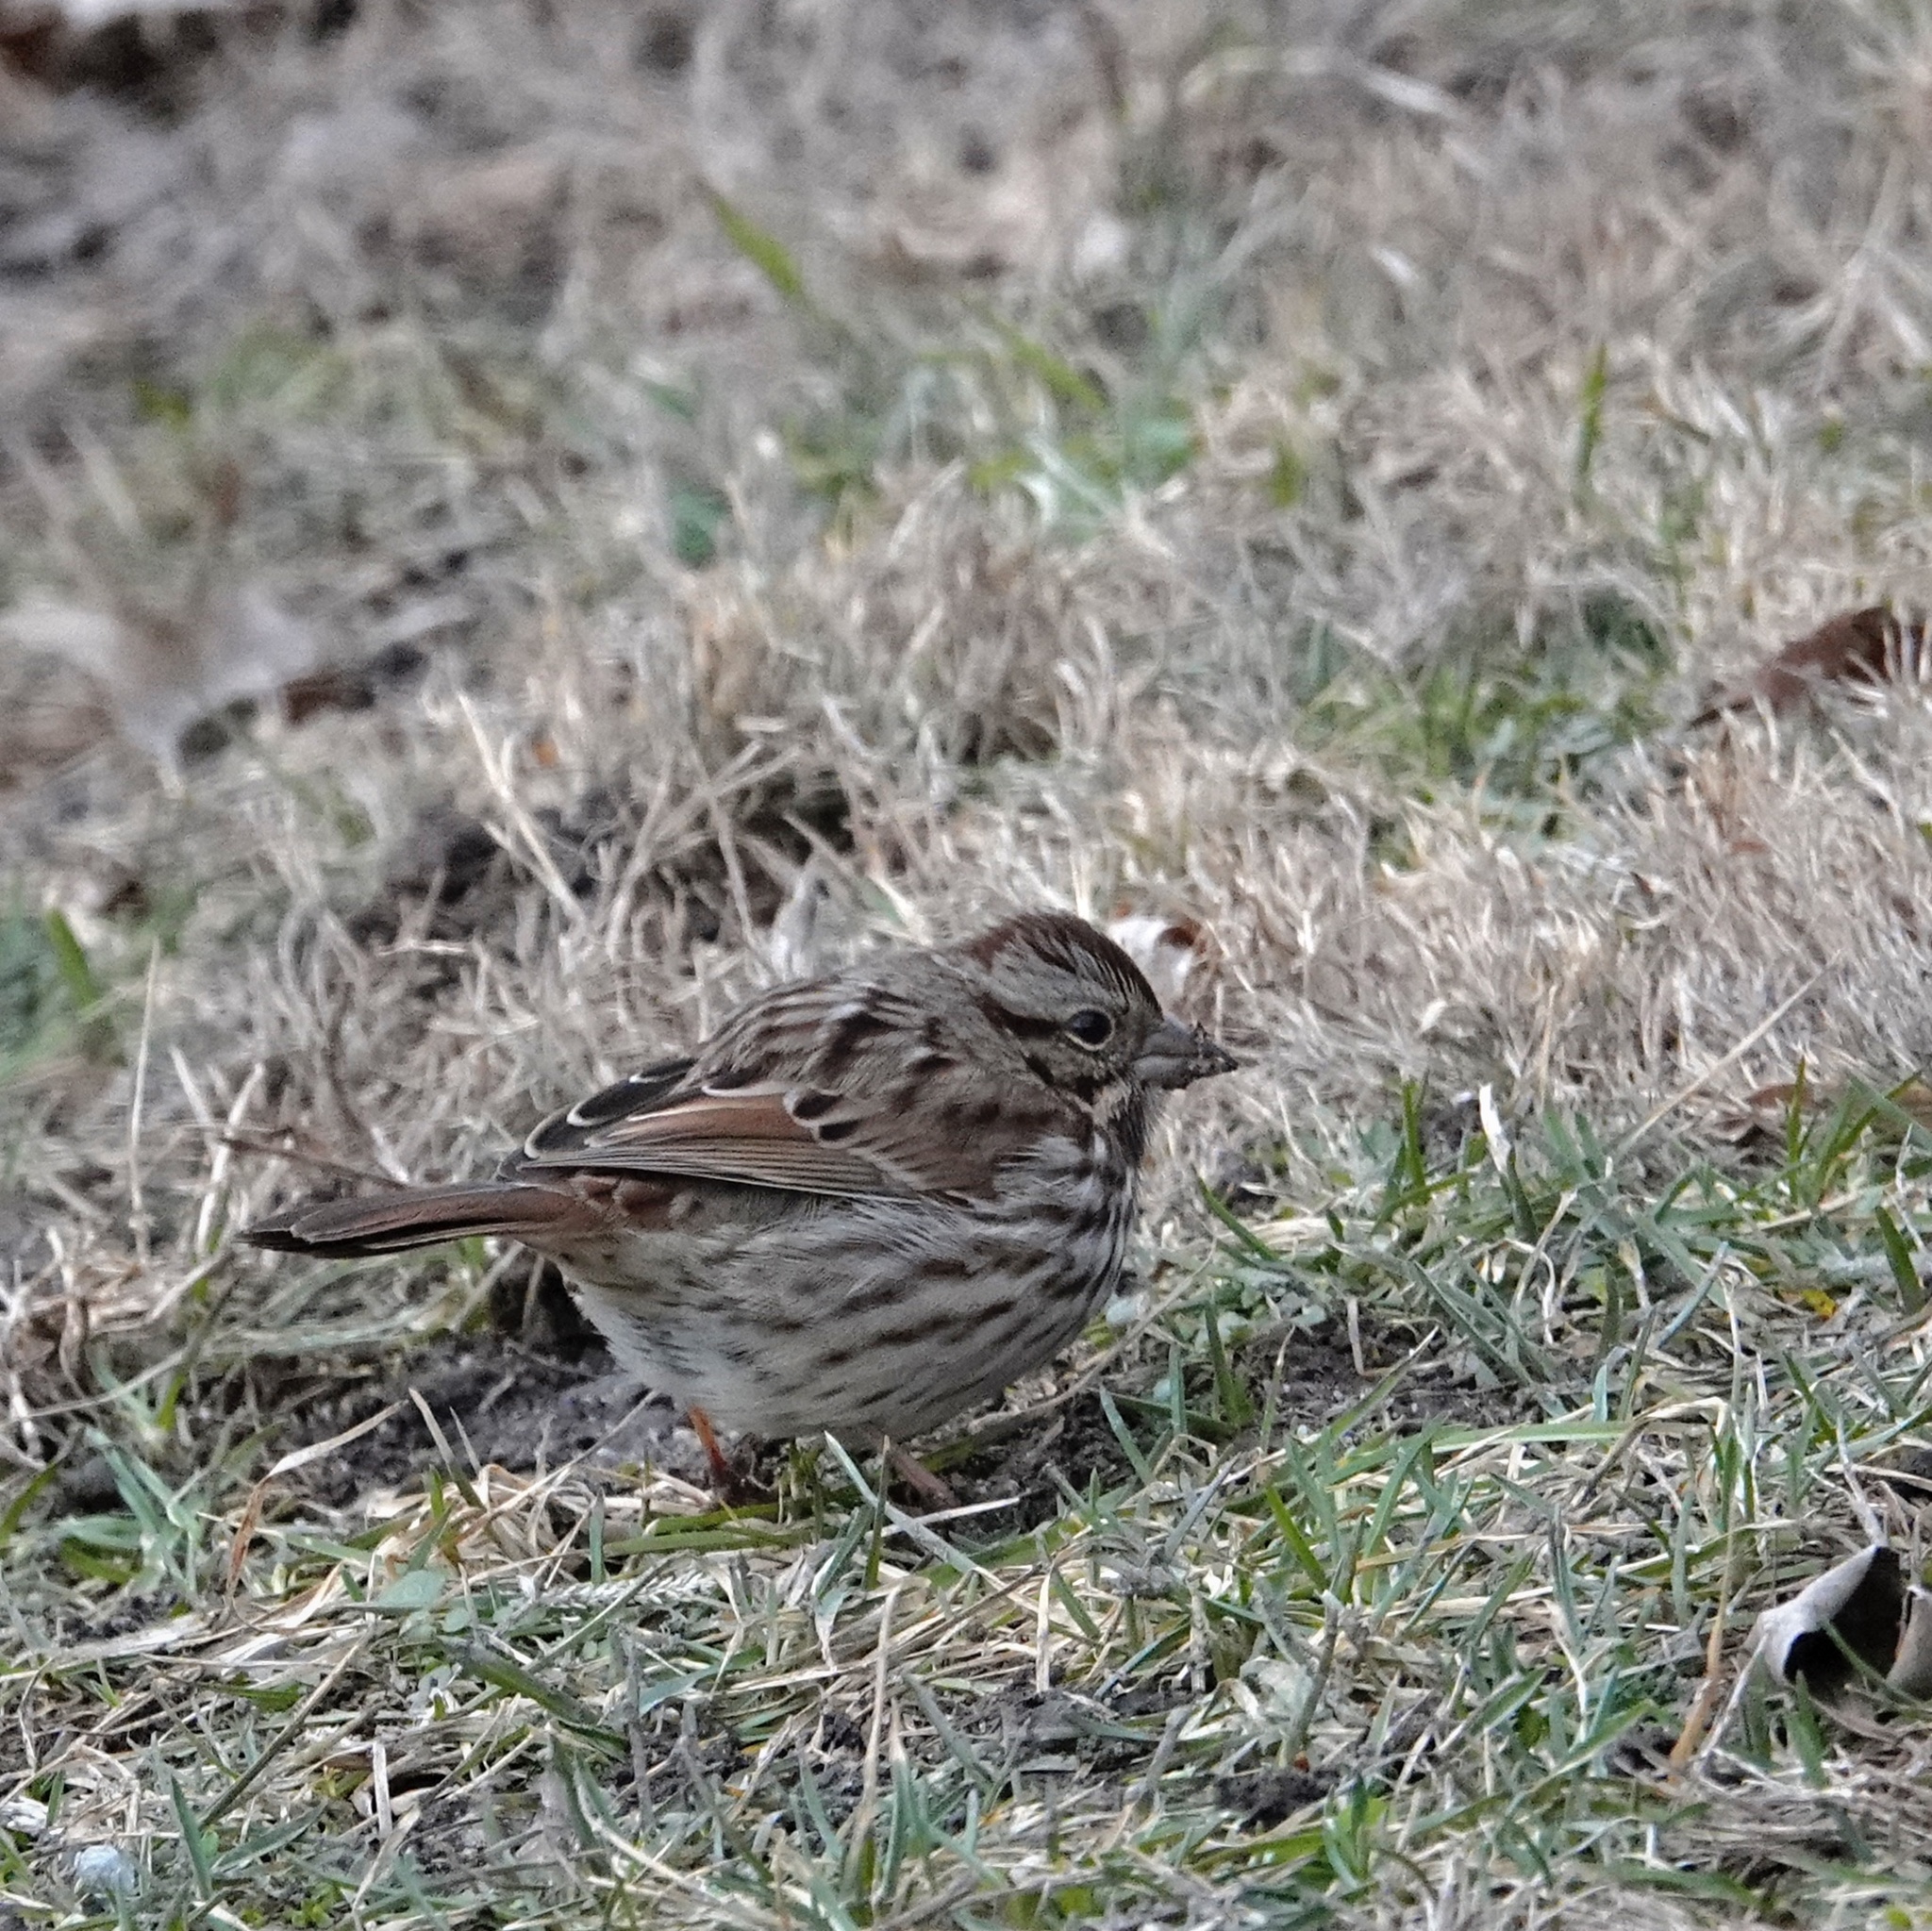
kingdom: Animalia
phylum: Chordata
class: Aves
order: Passeriformes
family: Passerellidae
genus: Melospiza
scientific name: Melospiza melodia
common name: Song sparrow
